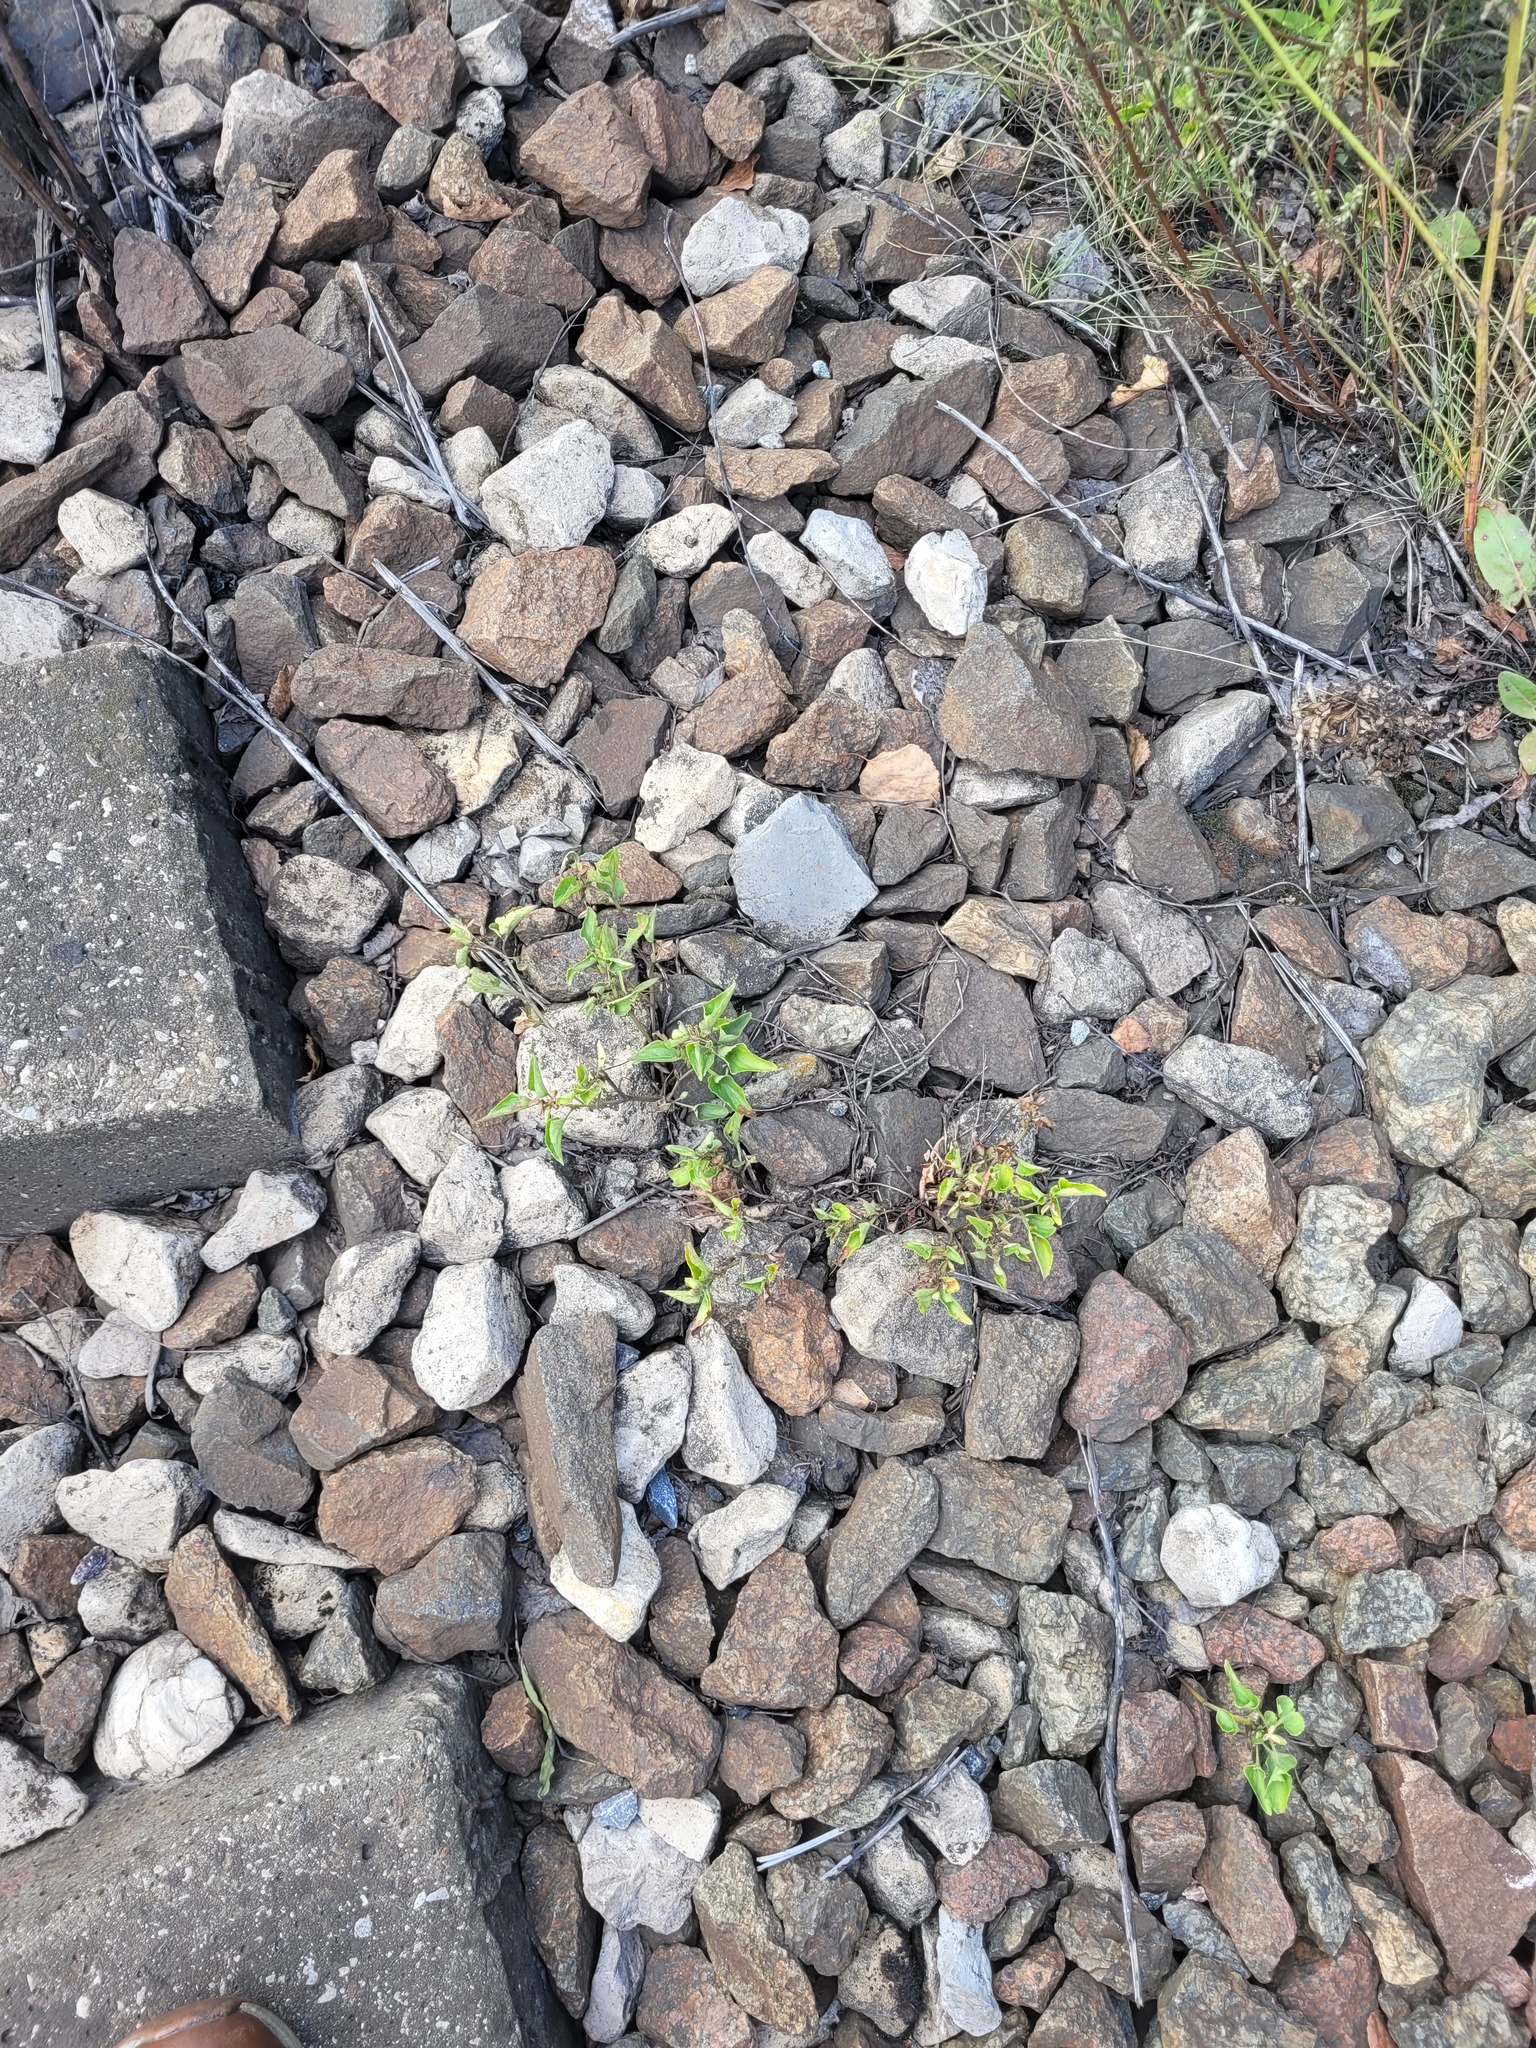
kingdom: Plantae
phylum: Tracheophyta
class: Magnoliopsida
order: Malpighiales
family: Violaceae
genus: Viola
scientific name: Viola canina
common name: Heath dog-violet
